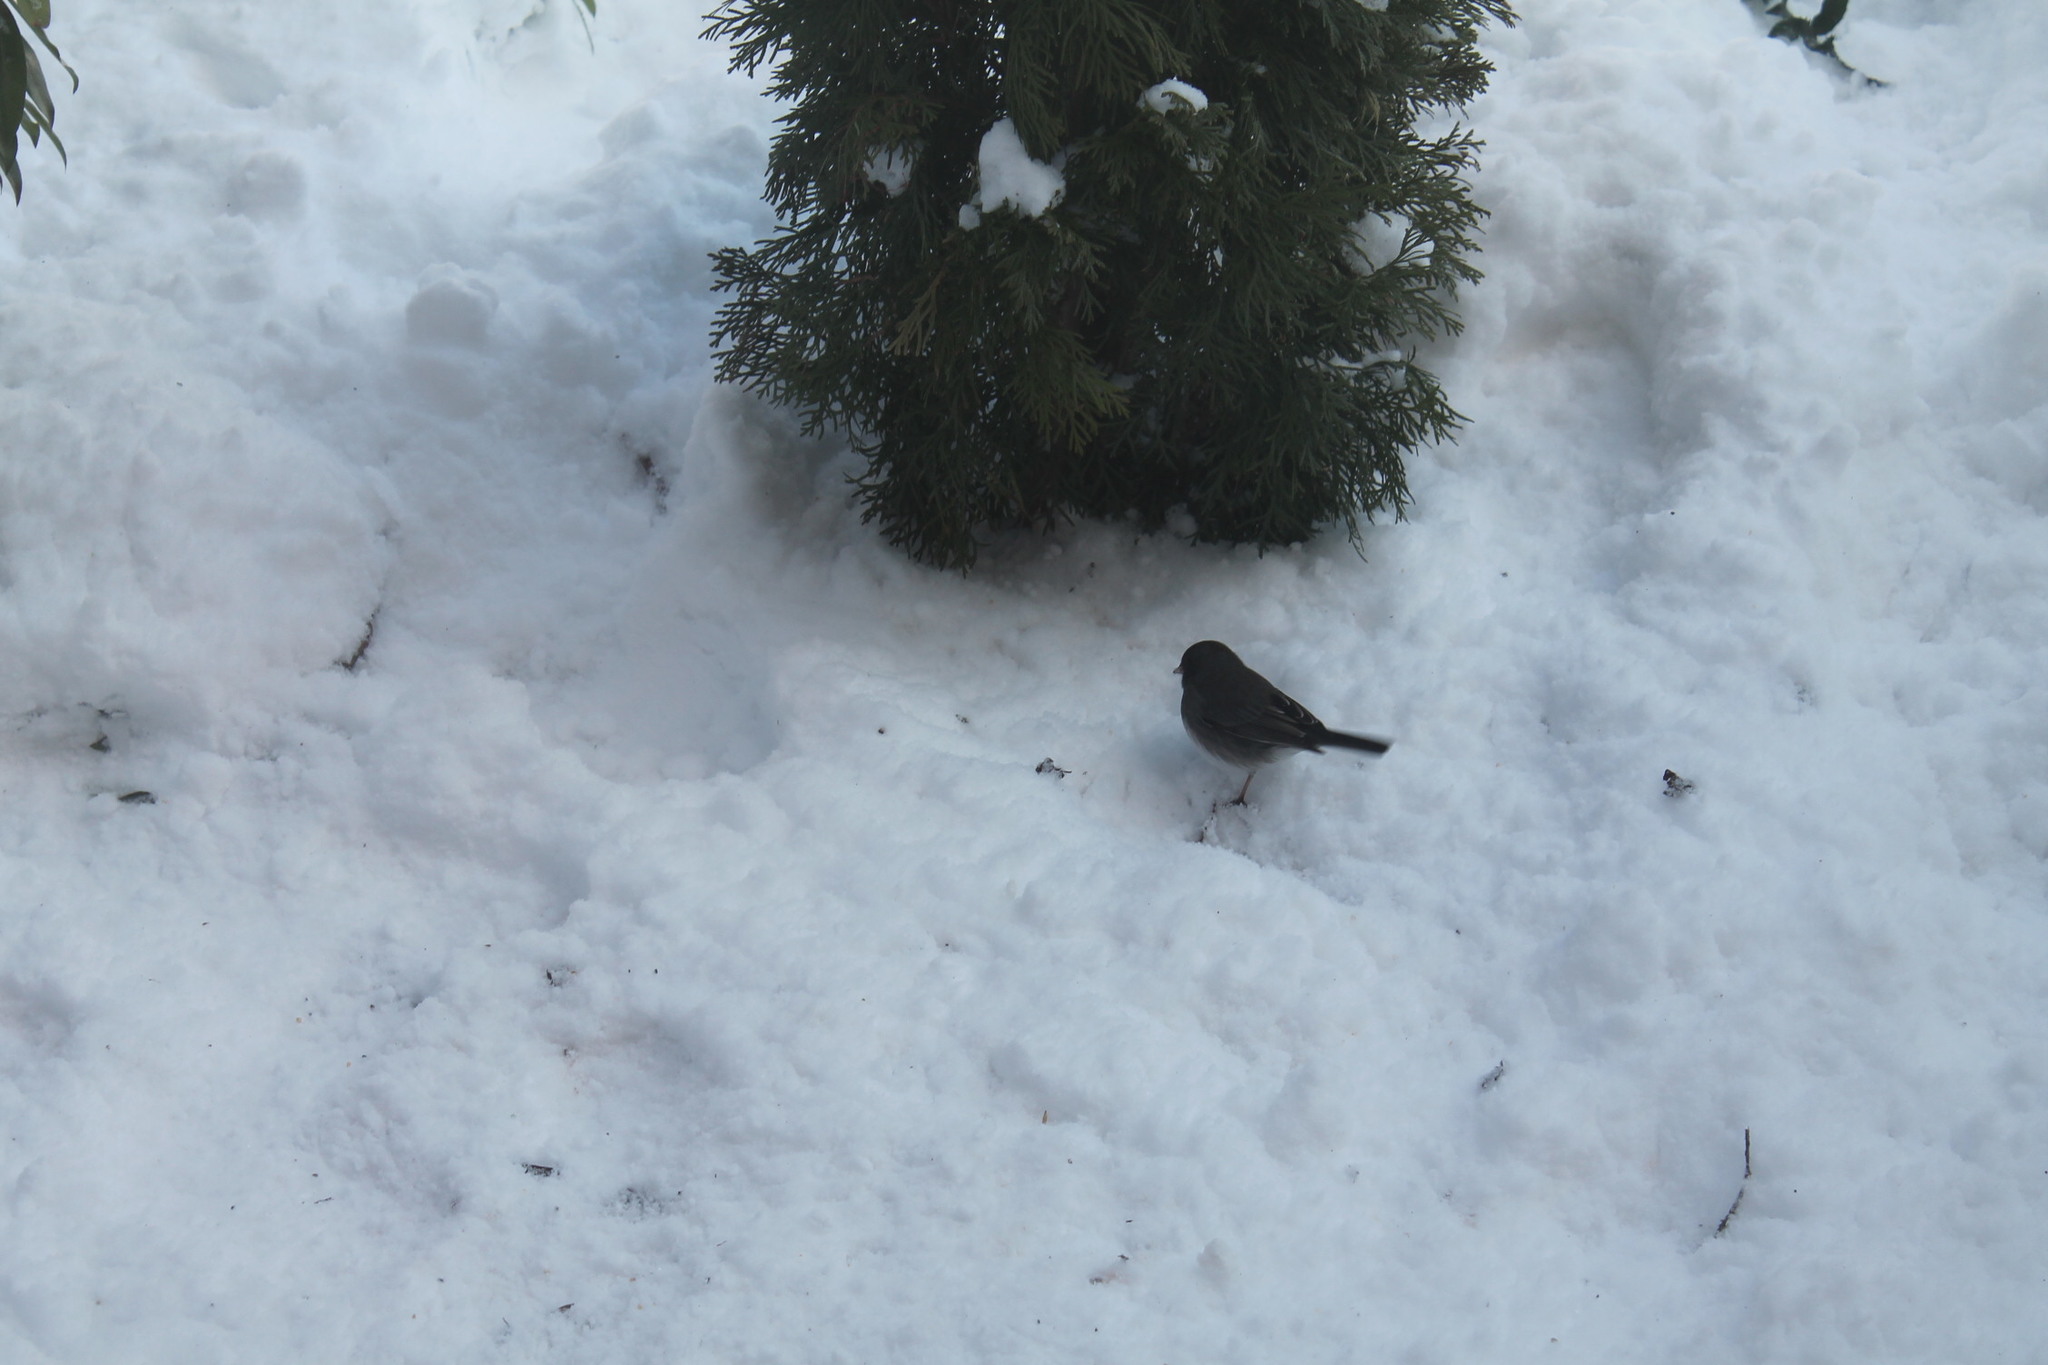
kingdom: Animalia
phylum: Chordata
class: Aves
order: Passeriformes
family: Passerellidae
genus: Junco
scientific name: Junco hyemalis
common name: Dark-eyed junco
